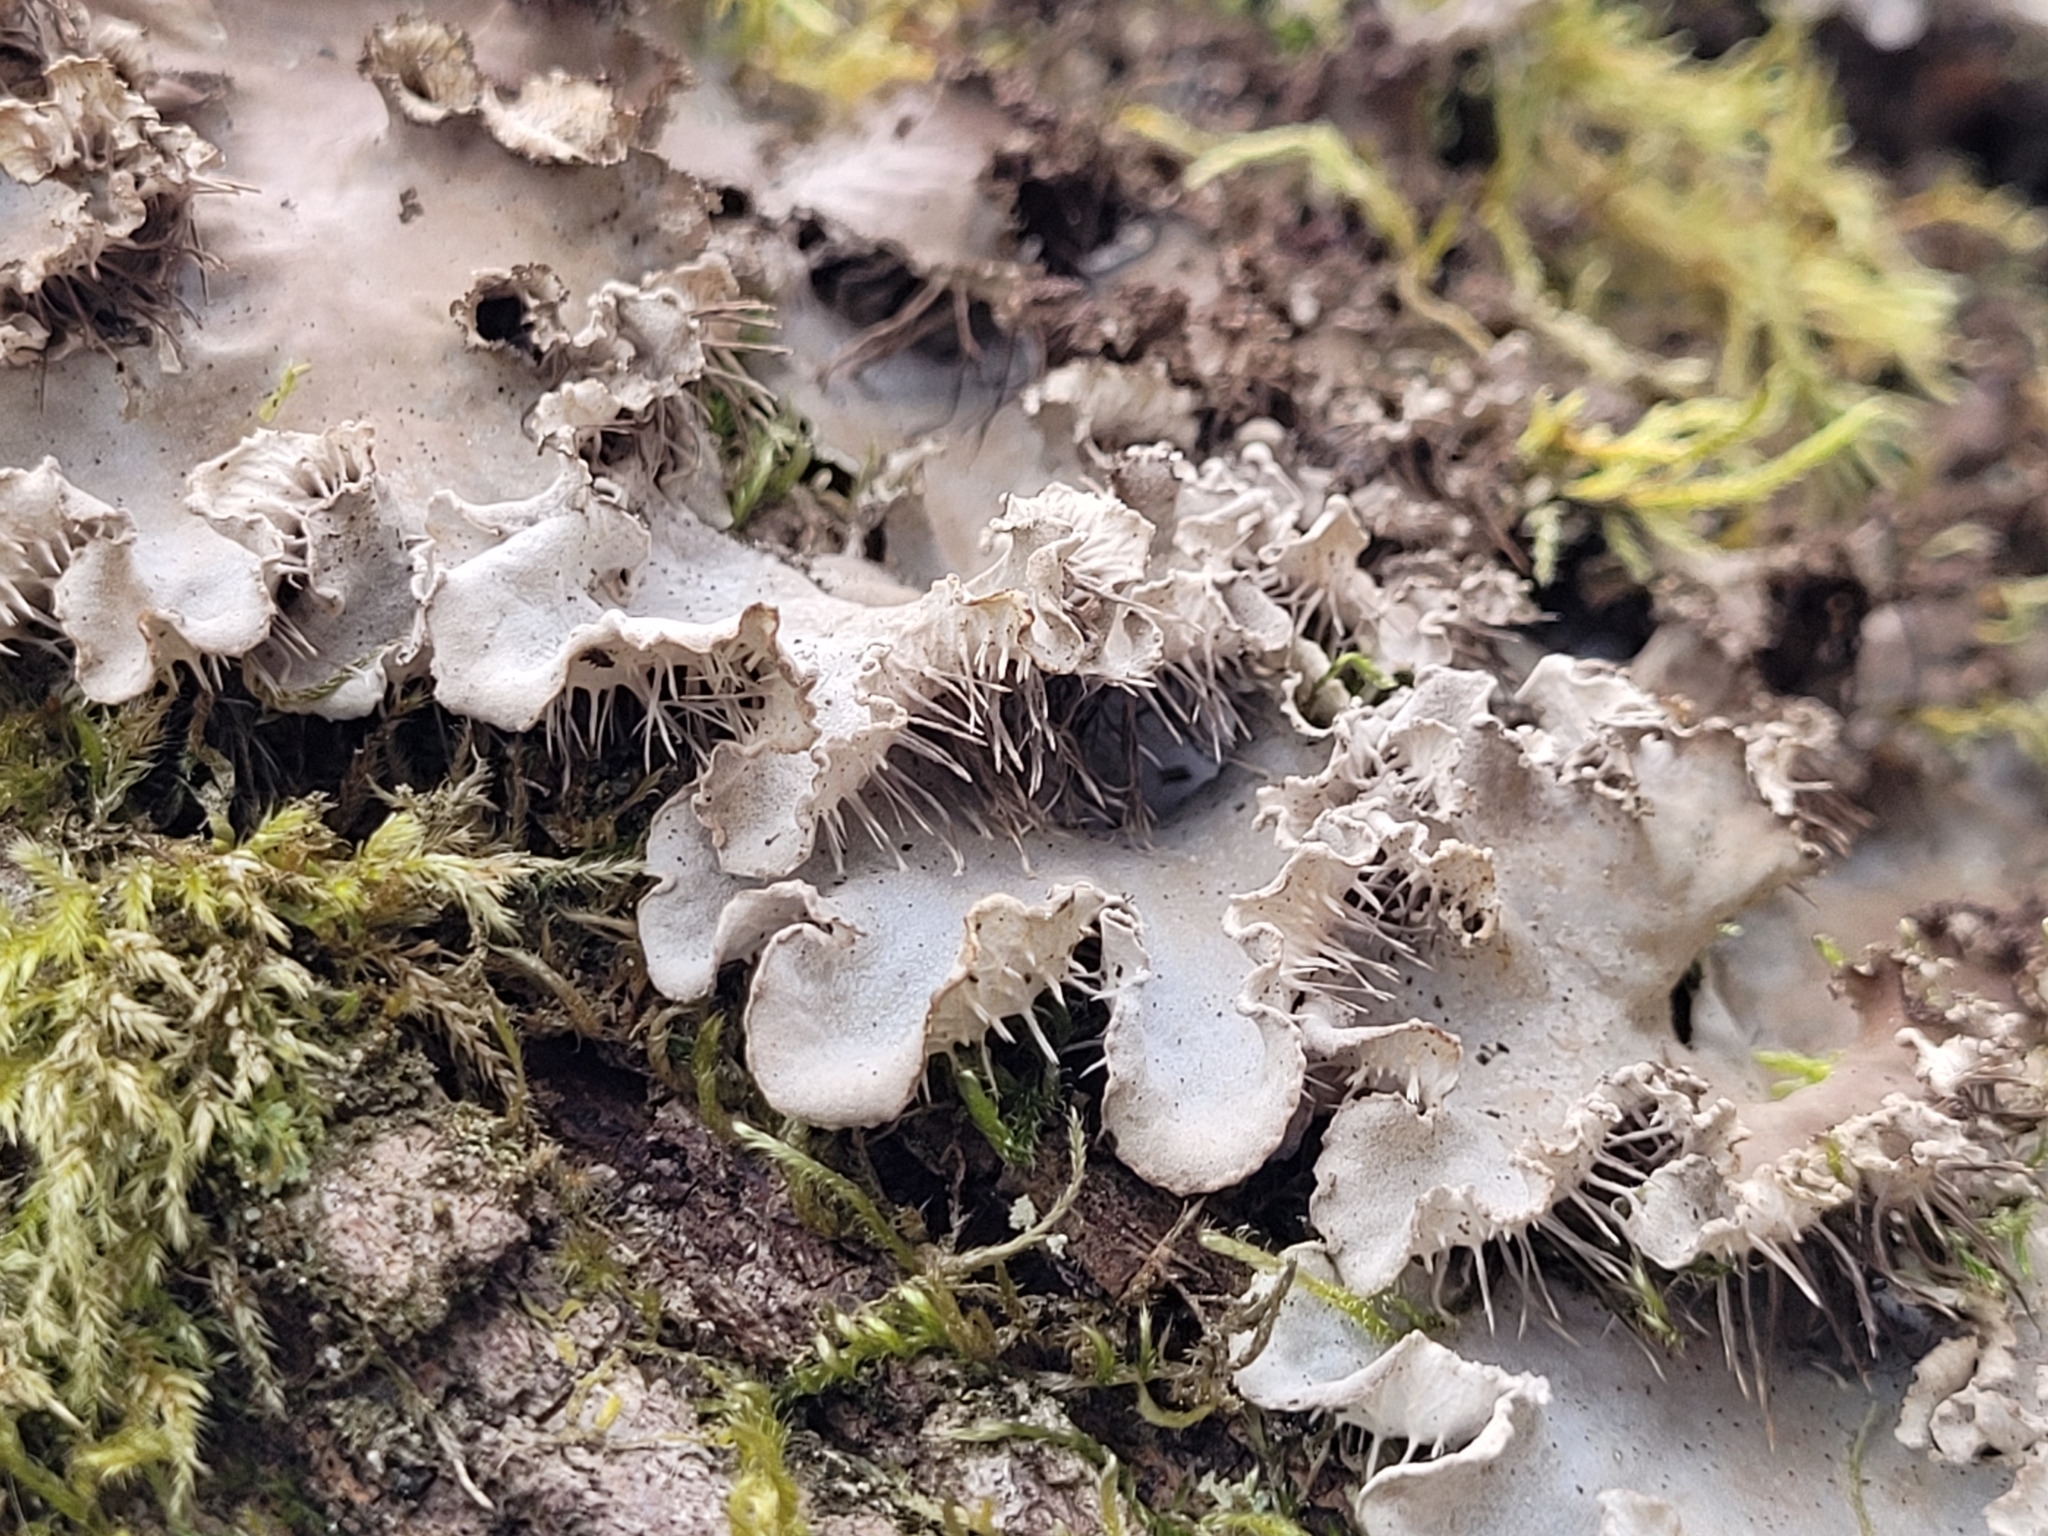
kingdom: Fungi
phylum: Ascomycota
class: Lecanoromycetes
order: Peltigerales
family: Peltigeraceae
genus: Peltigera
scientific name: Peltigera praetextata
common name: Scaly dog-lichen
